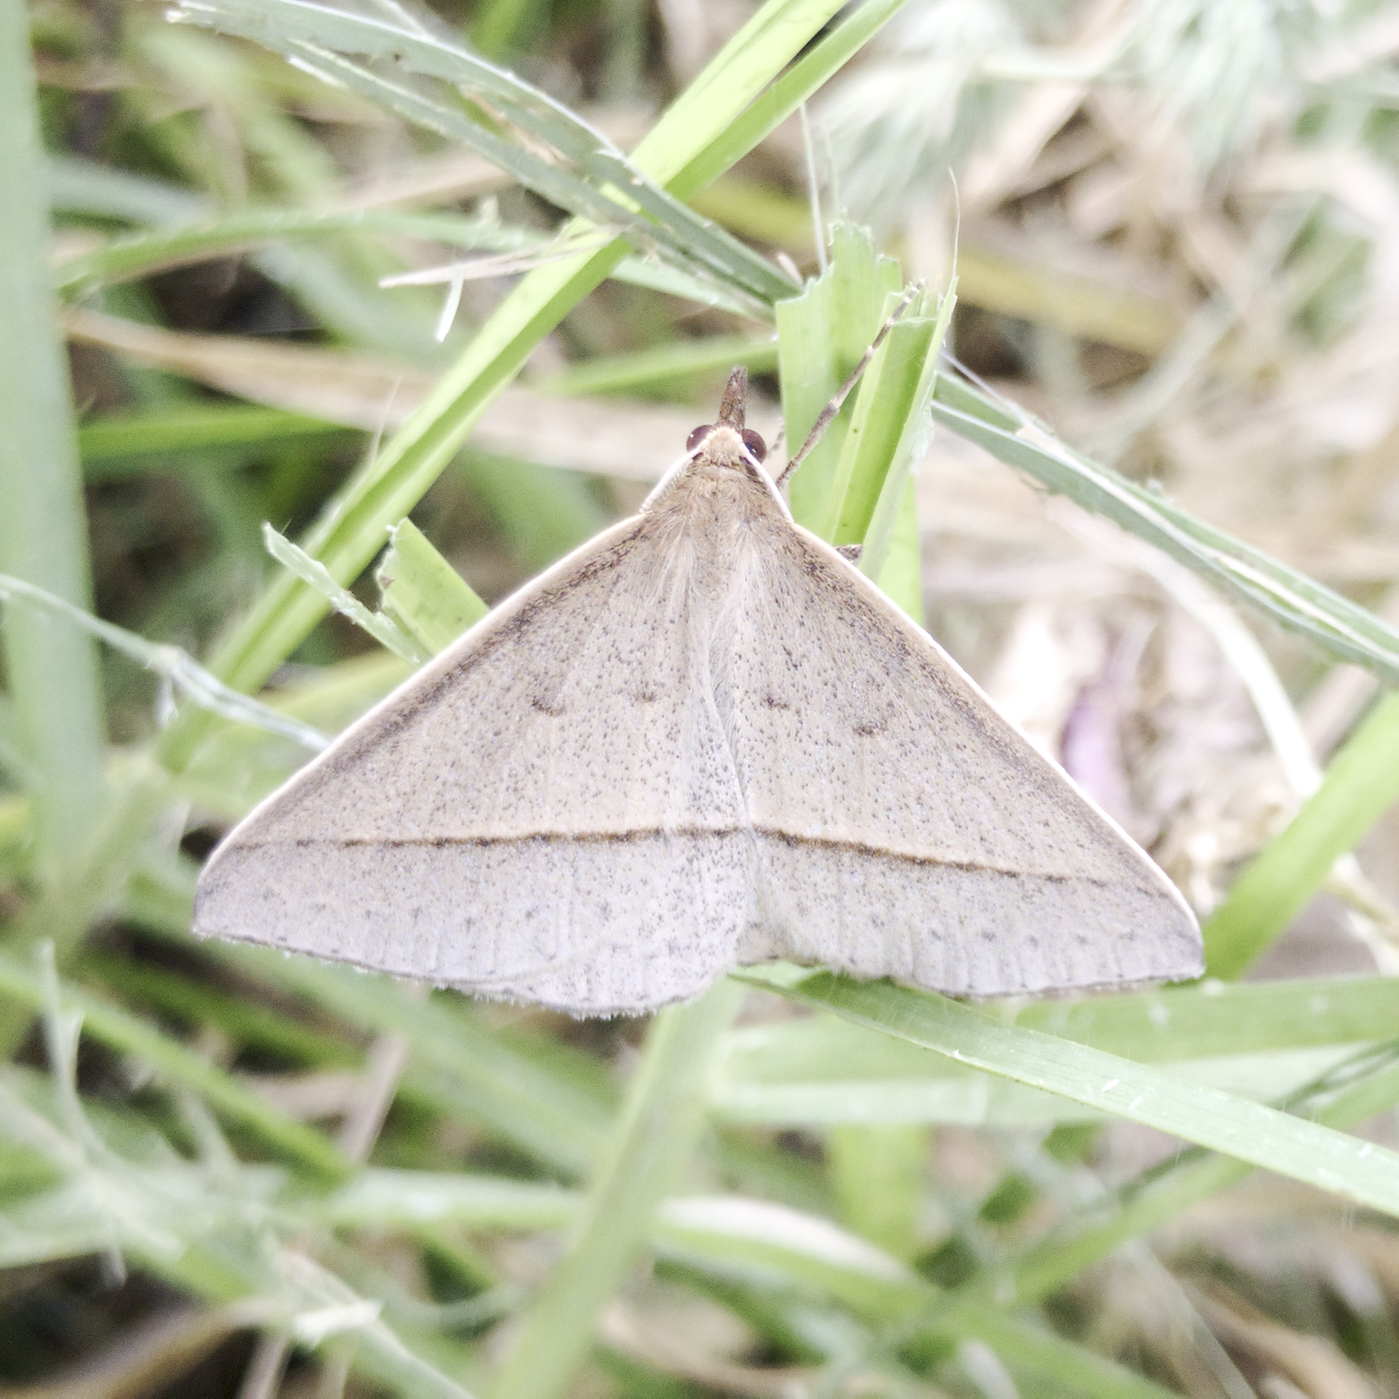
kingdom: Animalia
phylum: Arthropoda
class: Insecta
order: Lepidoptera
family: Geometridae
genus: Epidesmia
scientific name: Epidesmia tryxaria
